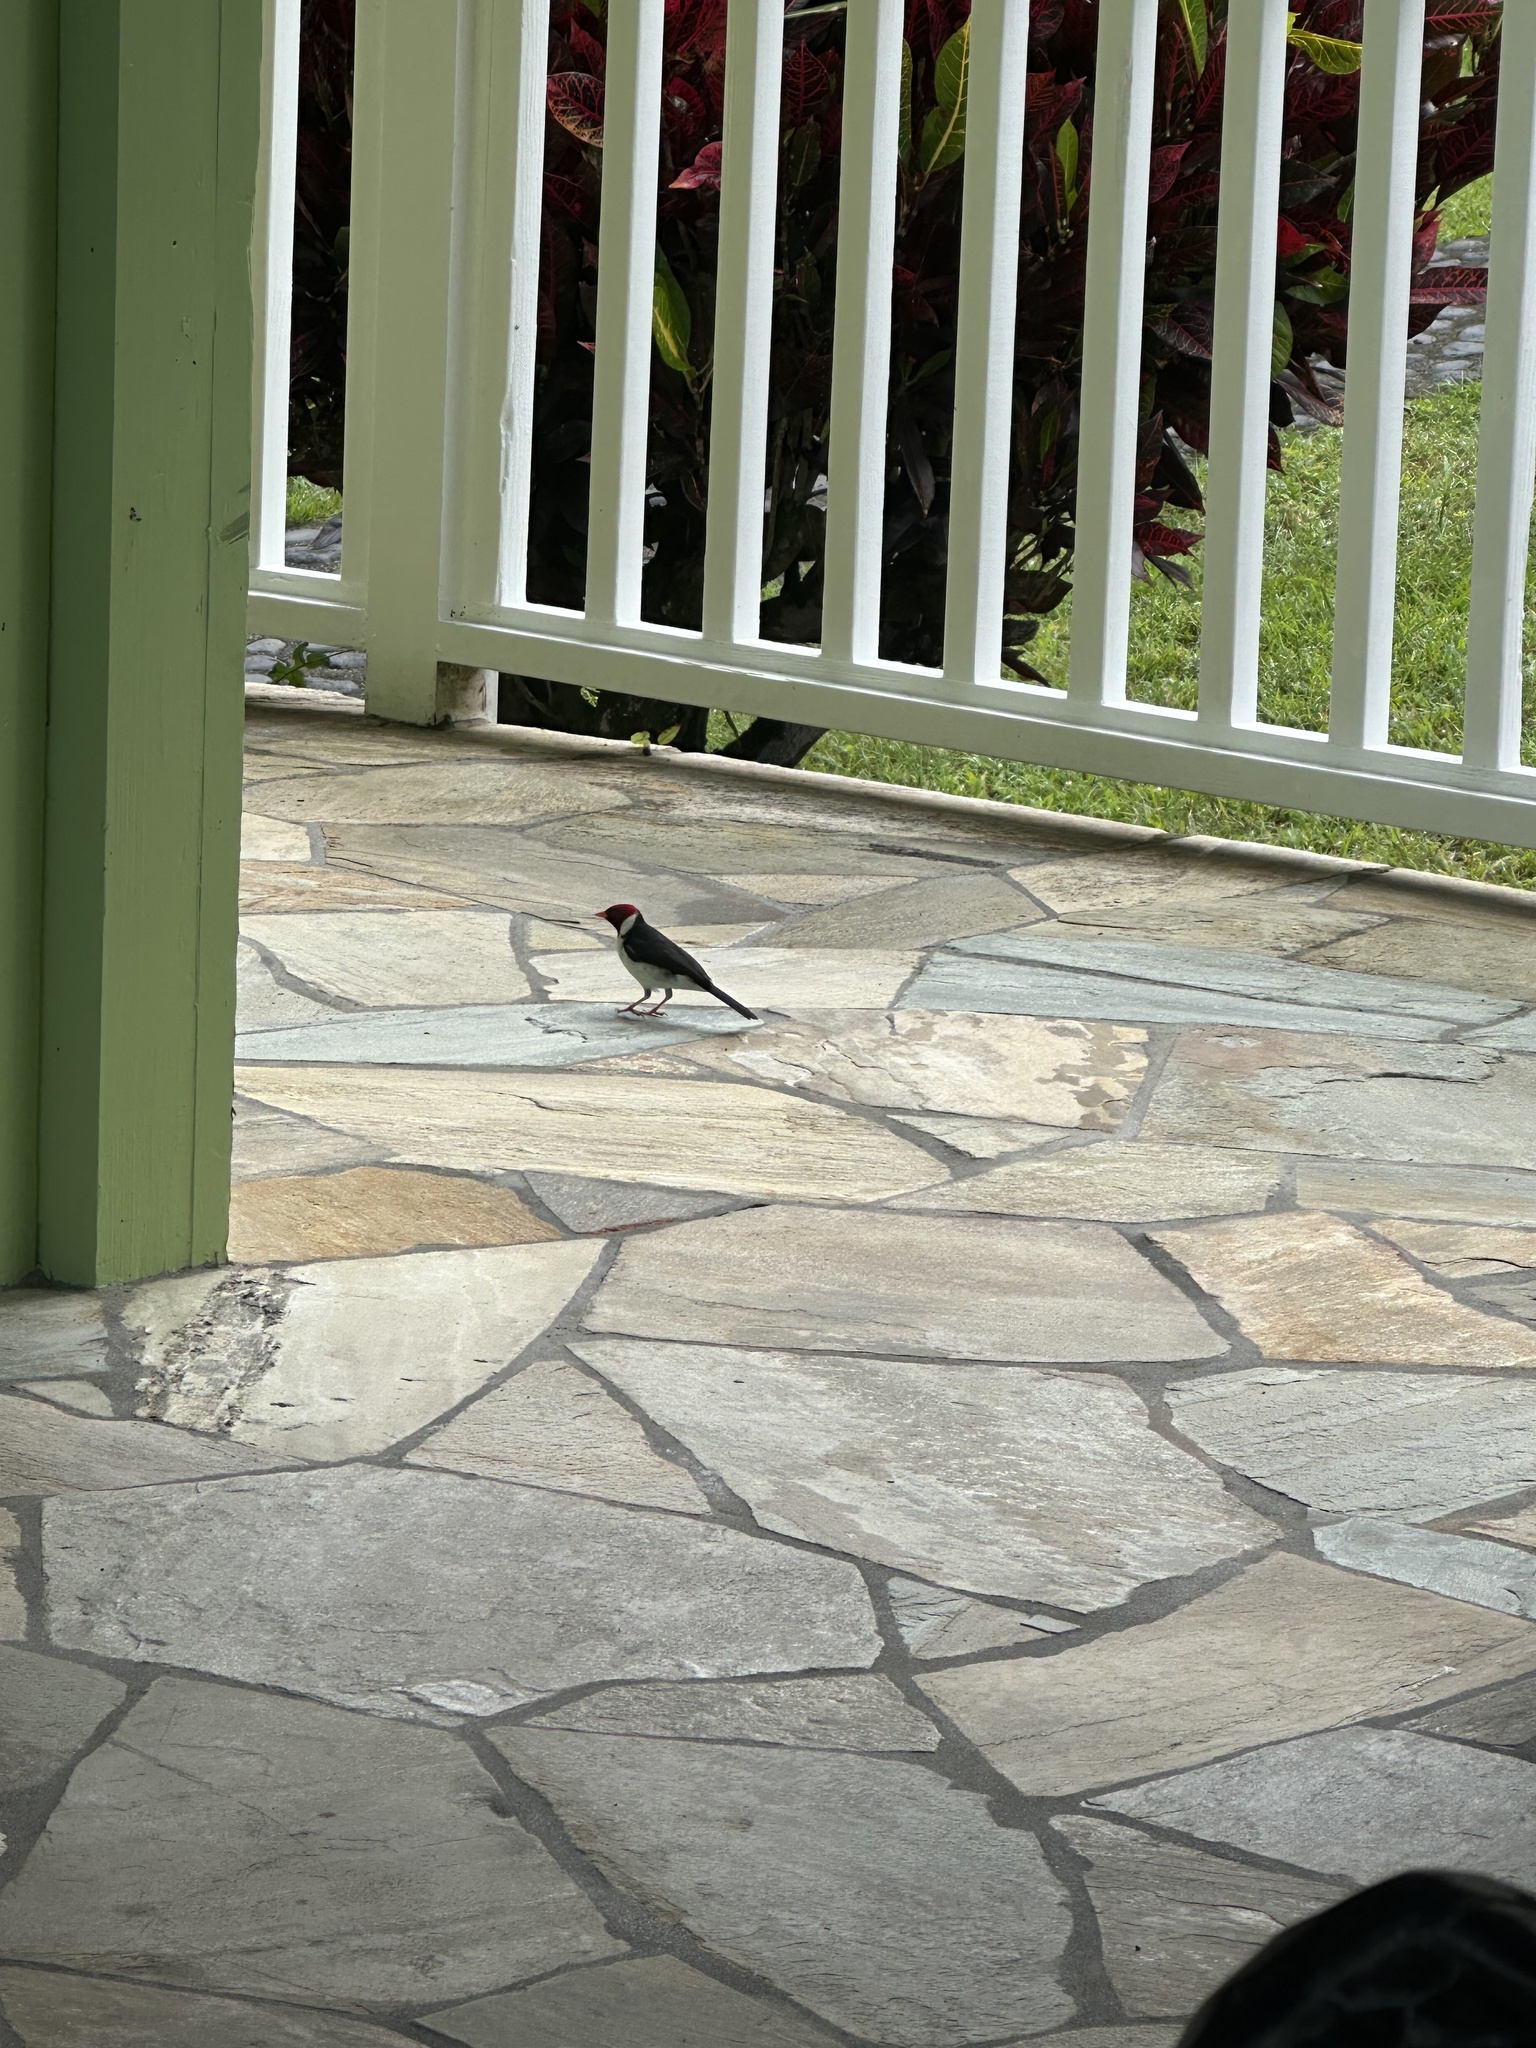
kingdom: Animalia
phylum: Chordata
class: Aves
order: Passeriformes
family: Thraupidae
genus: Paroaria
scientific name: Paroaria capitata
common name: Yellow-billed cardinal
